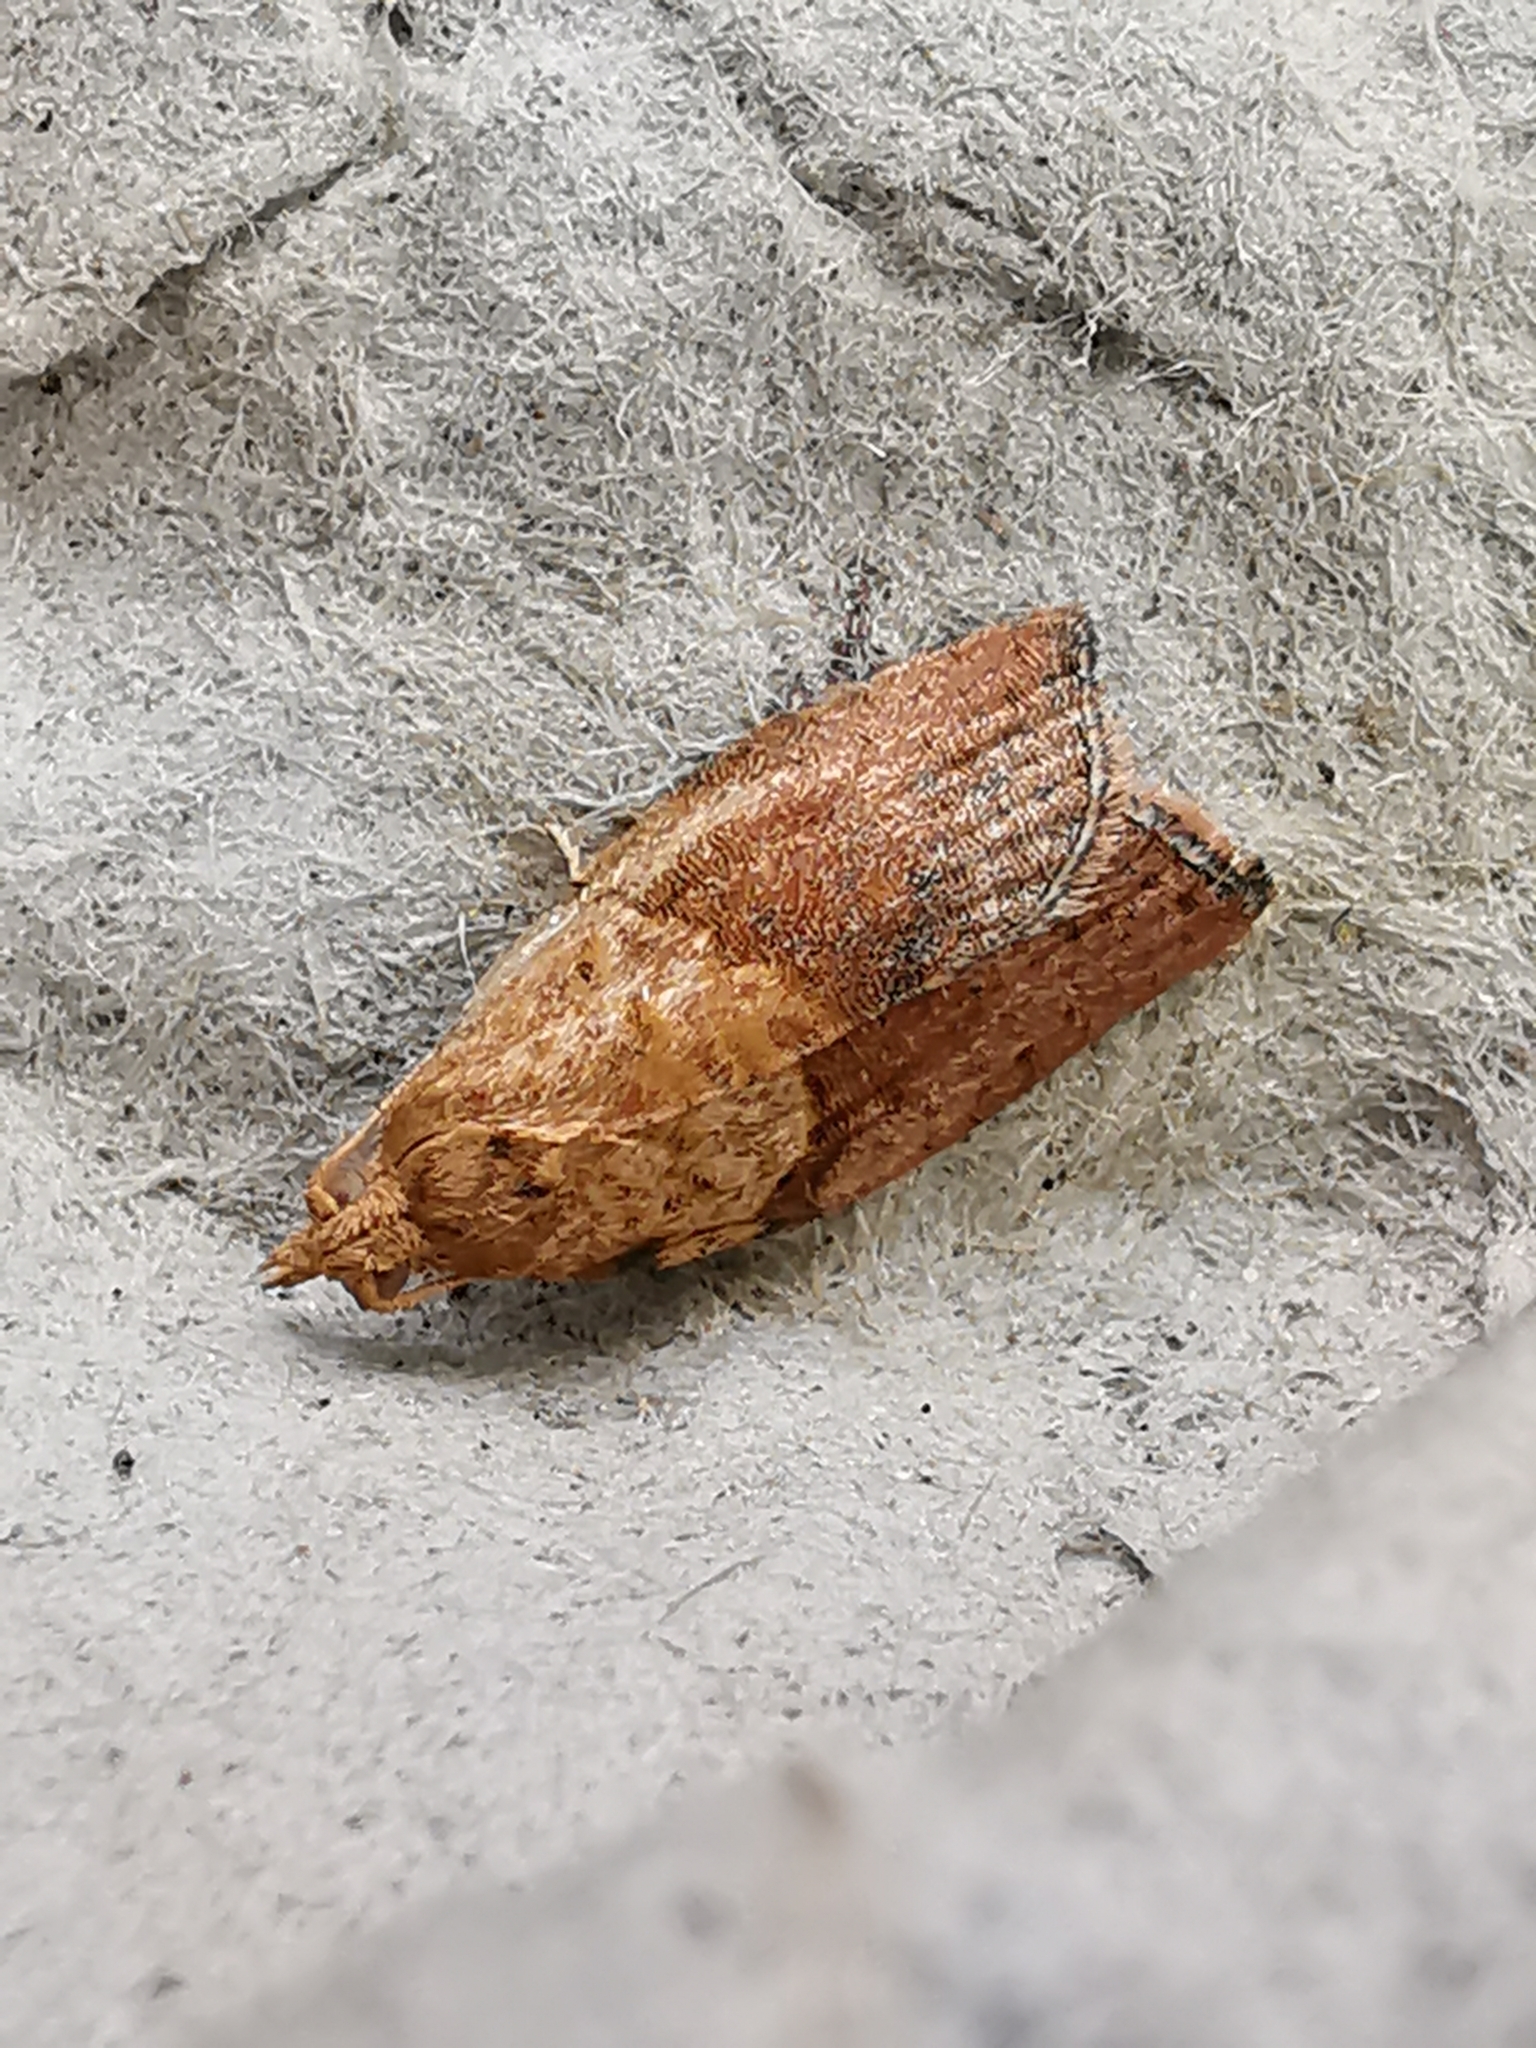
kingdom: Animalia
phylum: Arthropoda
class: Insecta
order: Lepidoptera
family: Tortricidae
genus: Epiphyas
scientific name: Epiphyas postvittana
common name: Light brown apple moth
